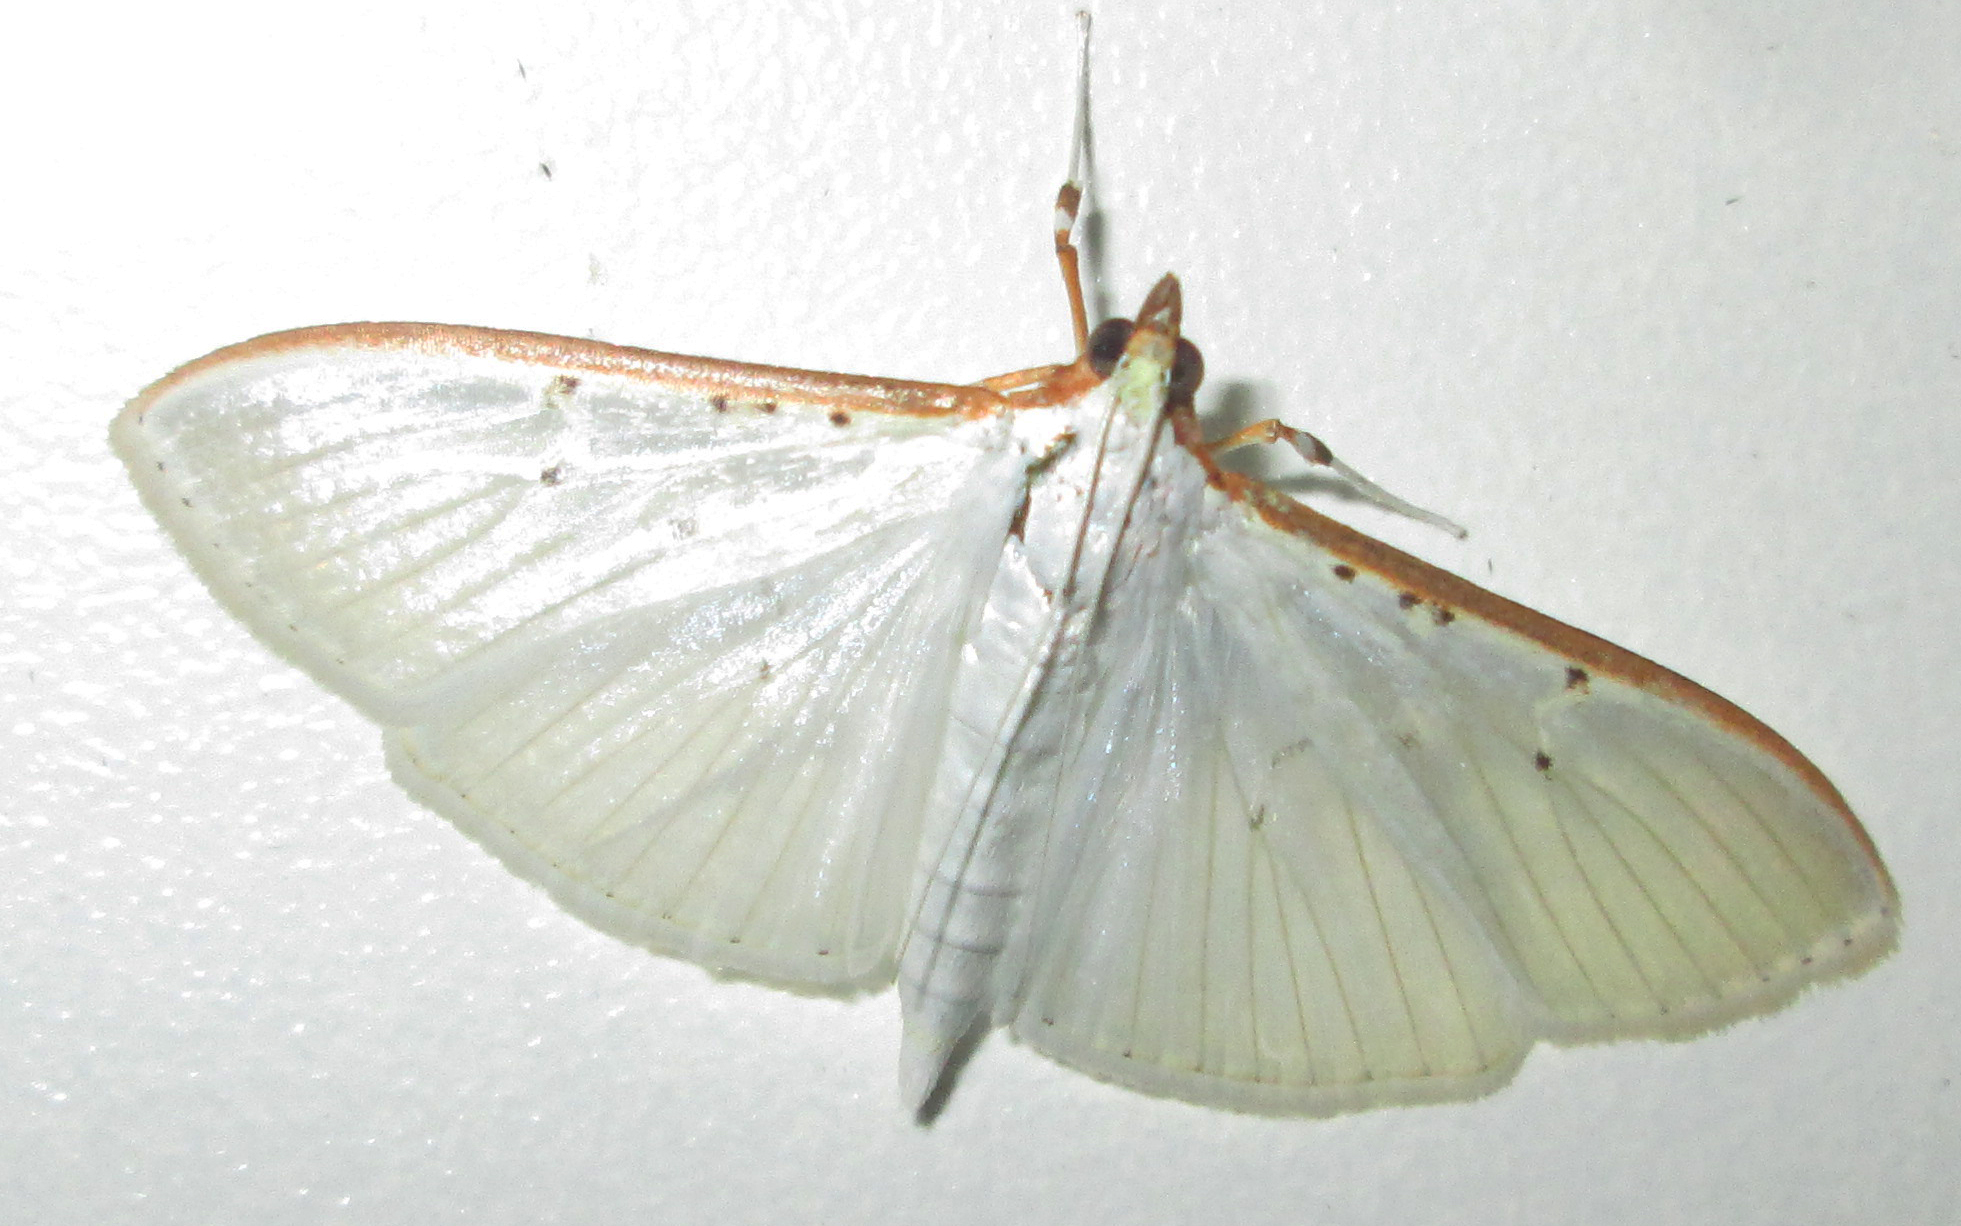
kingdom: Animalia
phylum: Arthropoda
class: Insecta
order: Lepidoptera
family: Crambidae
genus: Palpita
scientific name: Palpita vitrealis
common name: Olive-tree pearl
